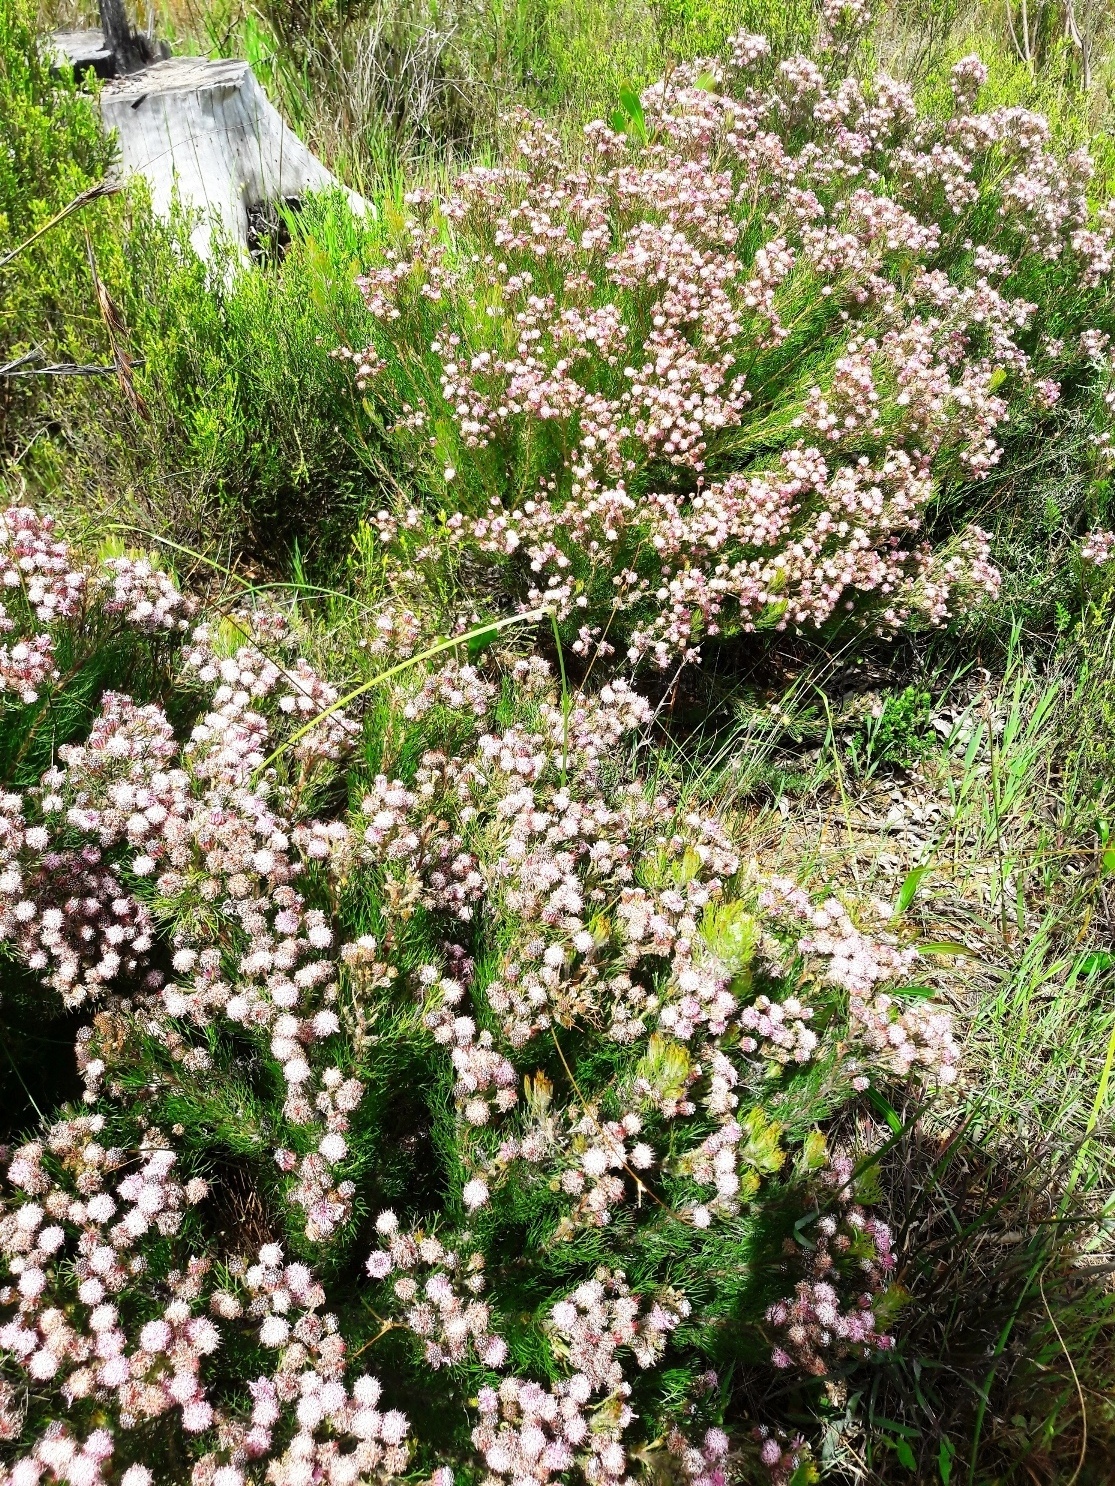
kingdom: Plantae
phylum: Tracheophyta
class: Magnoliopsida
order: Proteales
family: Proteaceae
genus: Serruria
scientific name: Serruria fasciflora
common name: Common pin spiderhead
